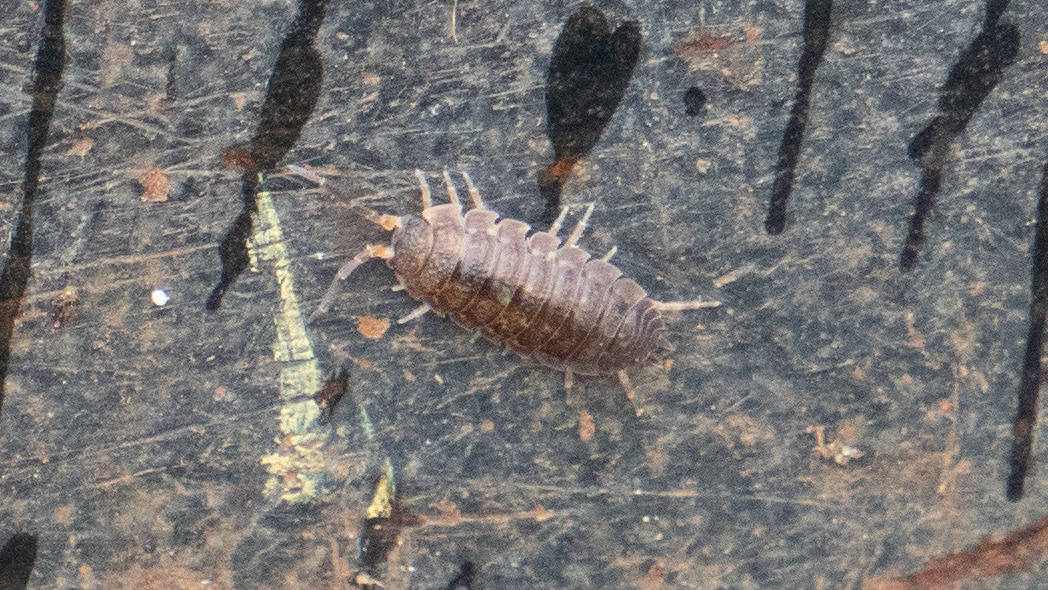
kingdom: Animalia
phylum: Arthropoda
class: Malacostraca
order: Isopoda
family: Porcellionidae
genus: Porcellio
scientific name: Porcellio scaber
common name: Common rough woodlouse
